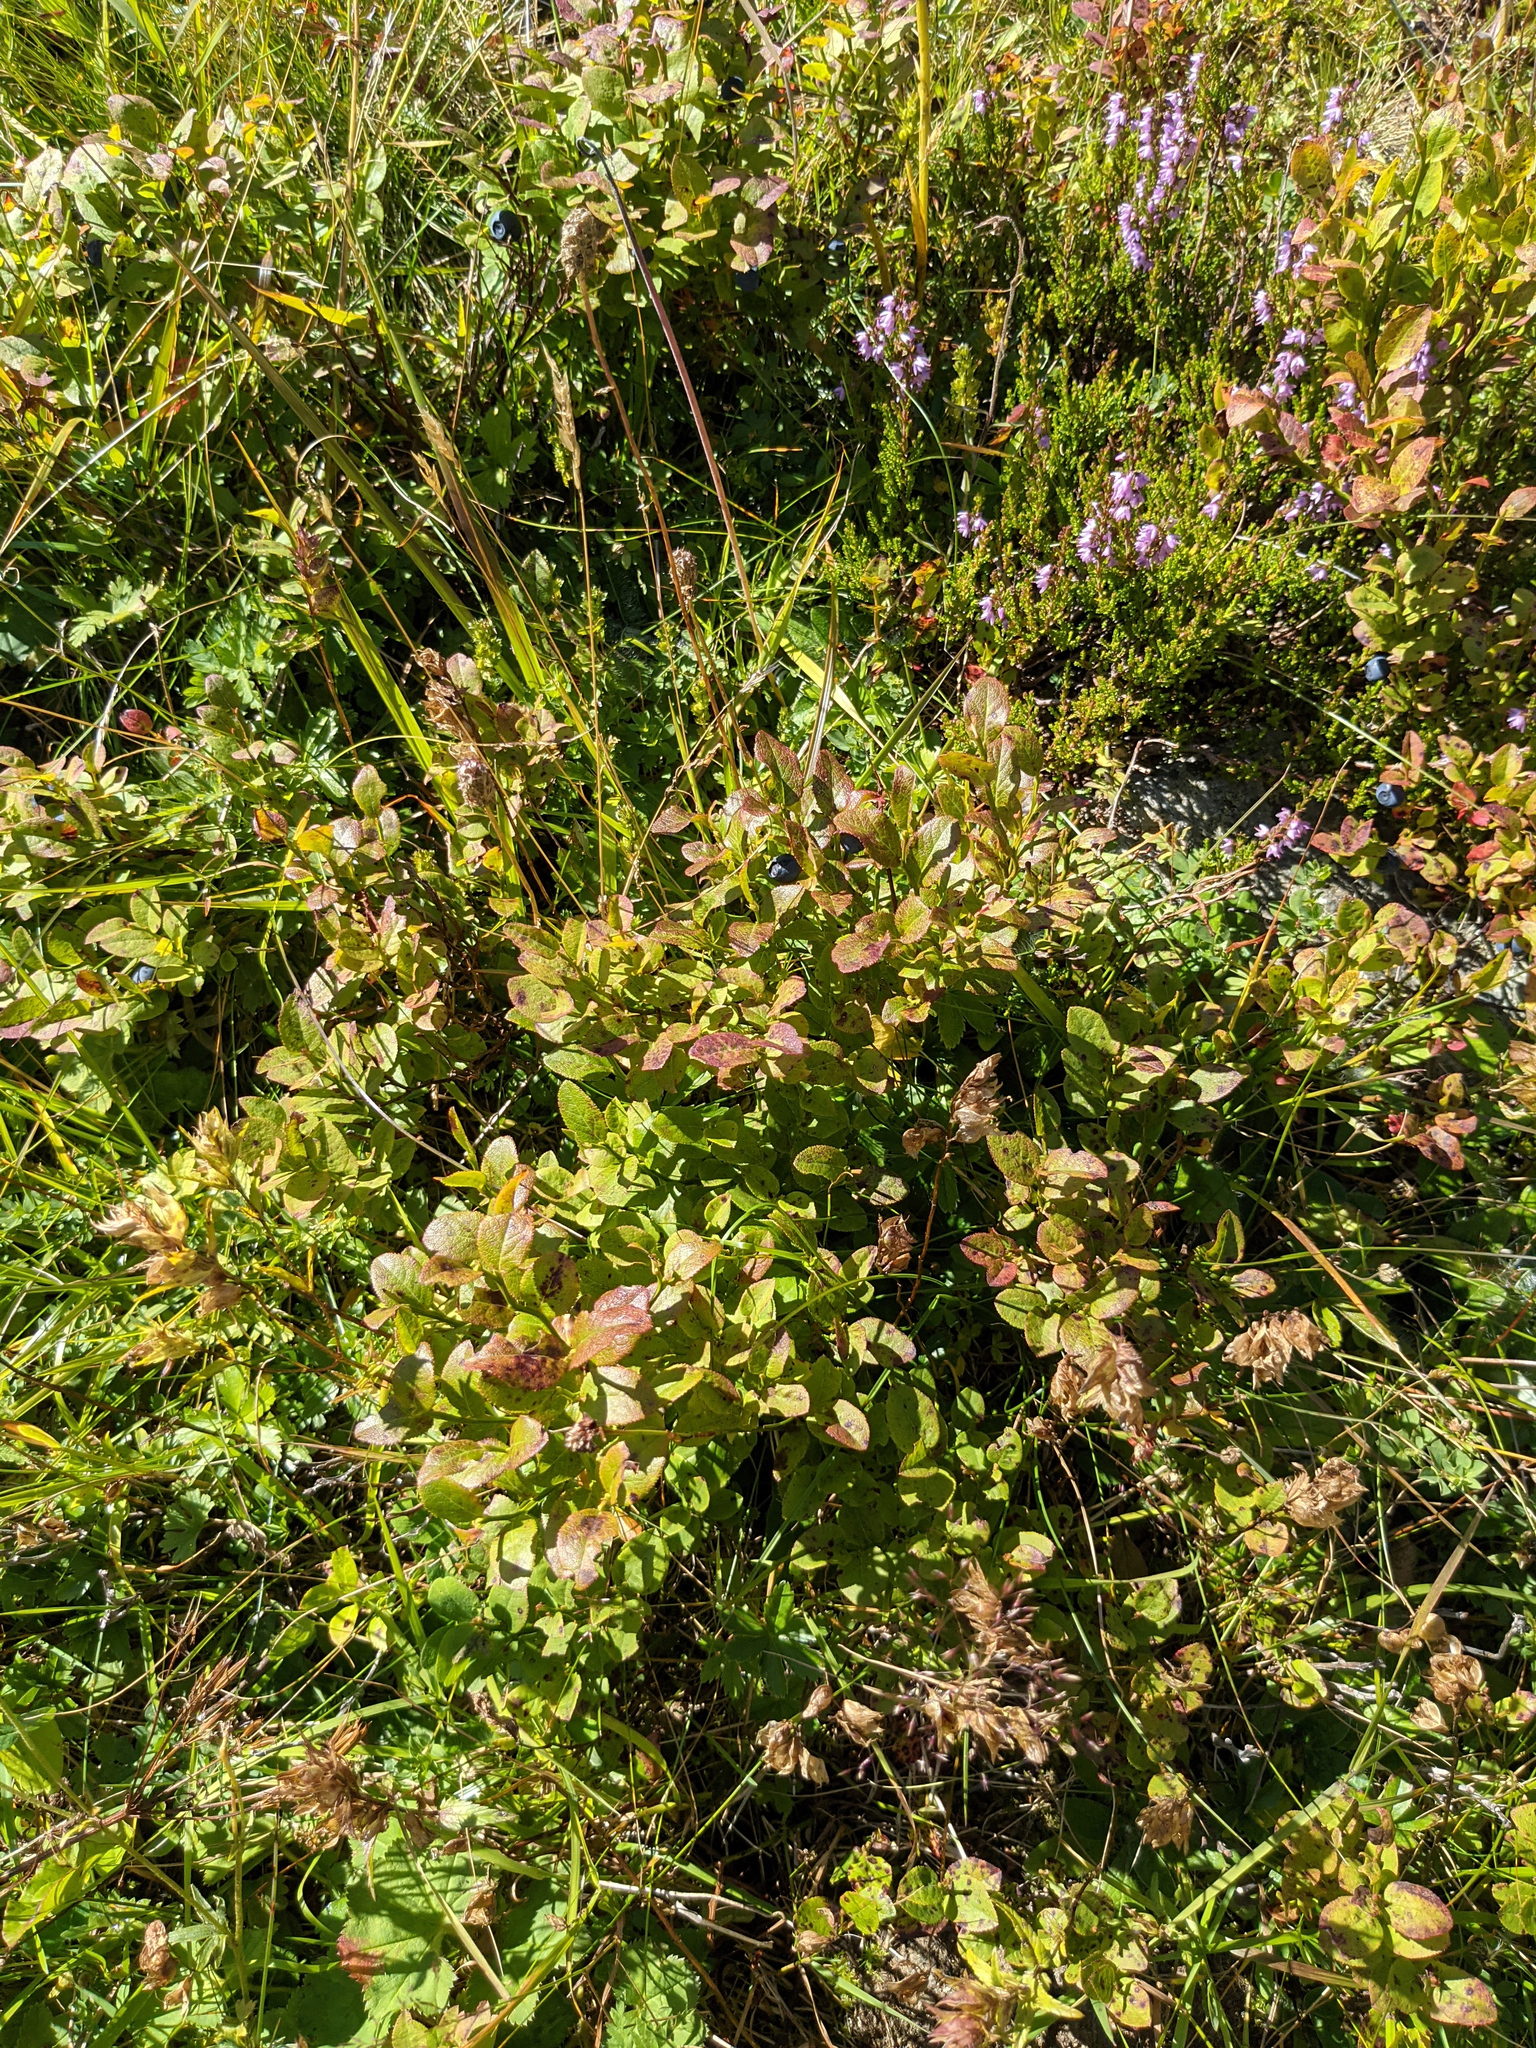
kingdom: Plantae
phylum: Tracheophyta
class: Magnoliopsida
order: Ericales
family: Ericaceae
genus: Vaccinium
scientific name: Vaccinium myrtillus
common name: Bilberry
